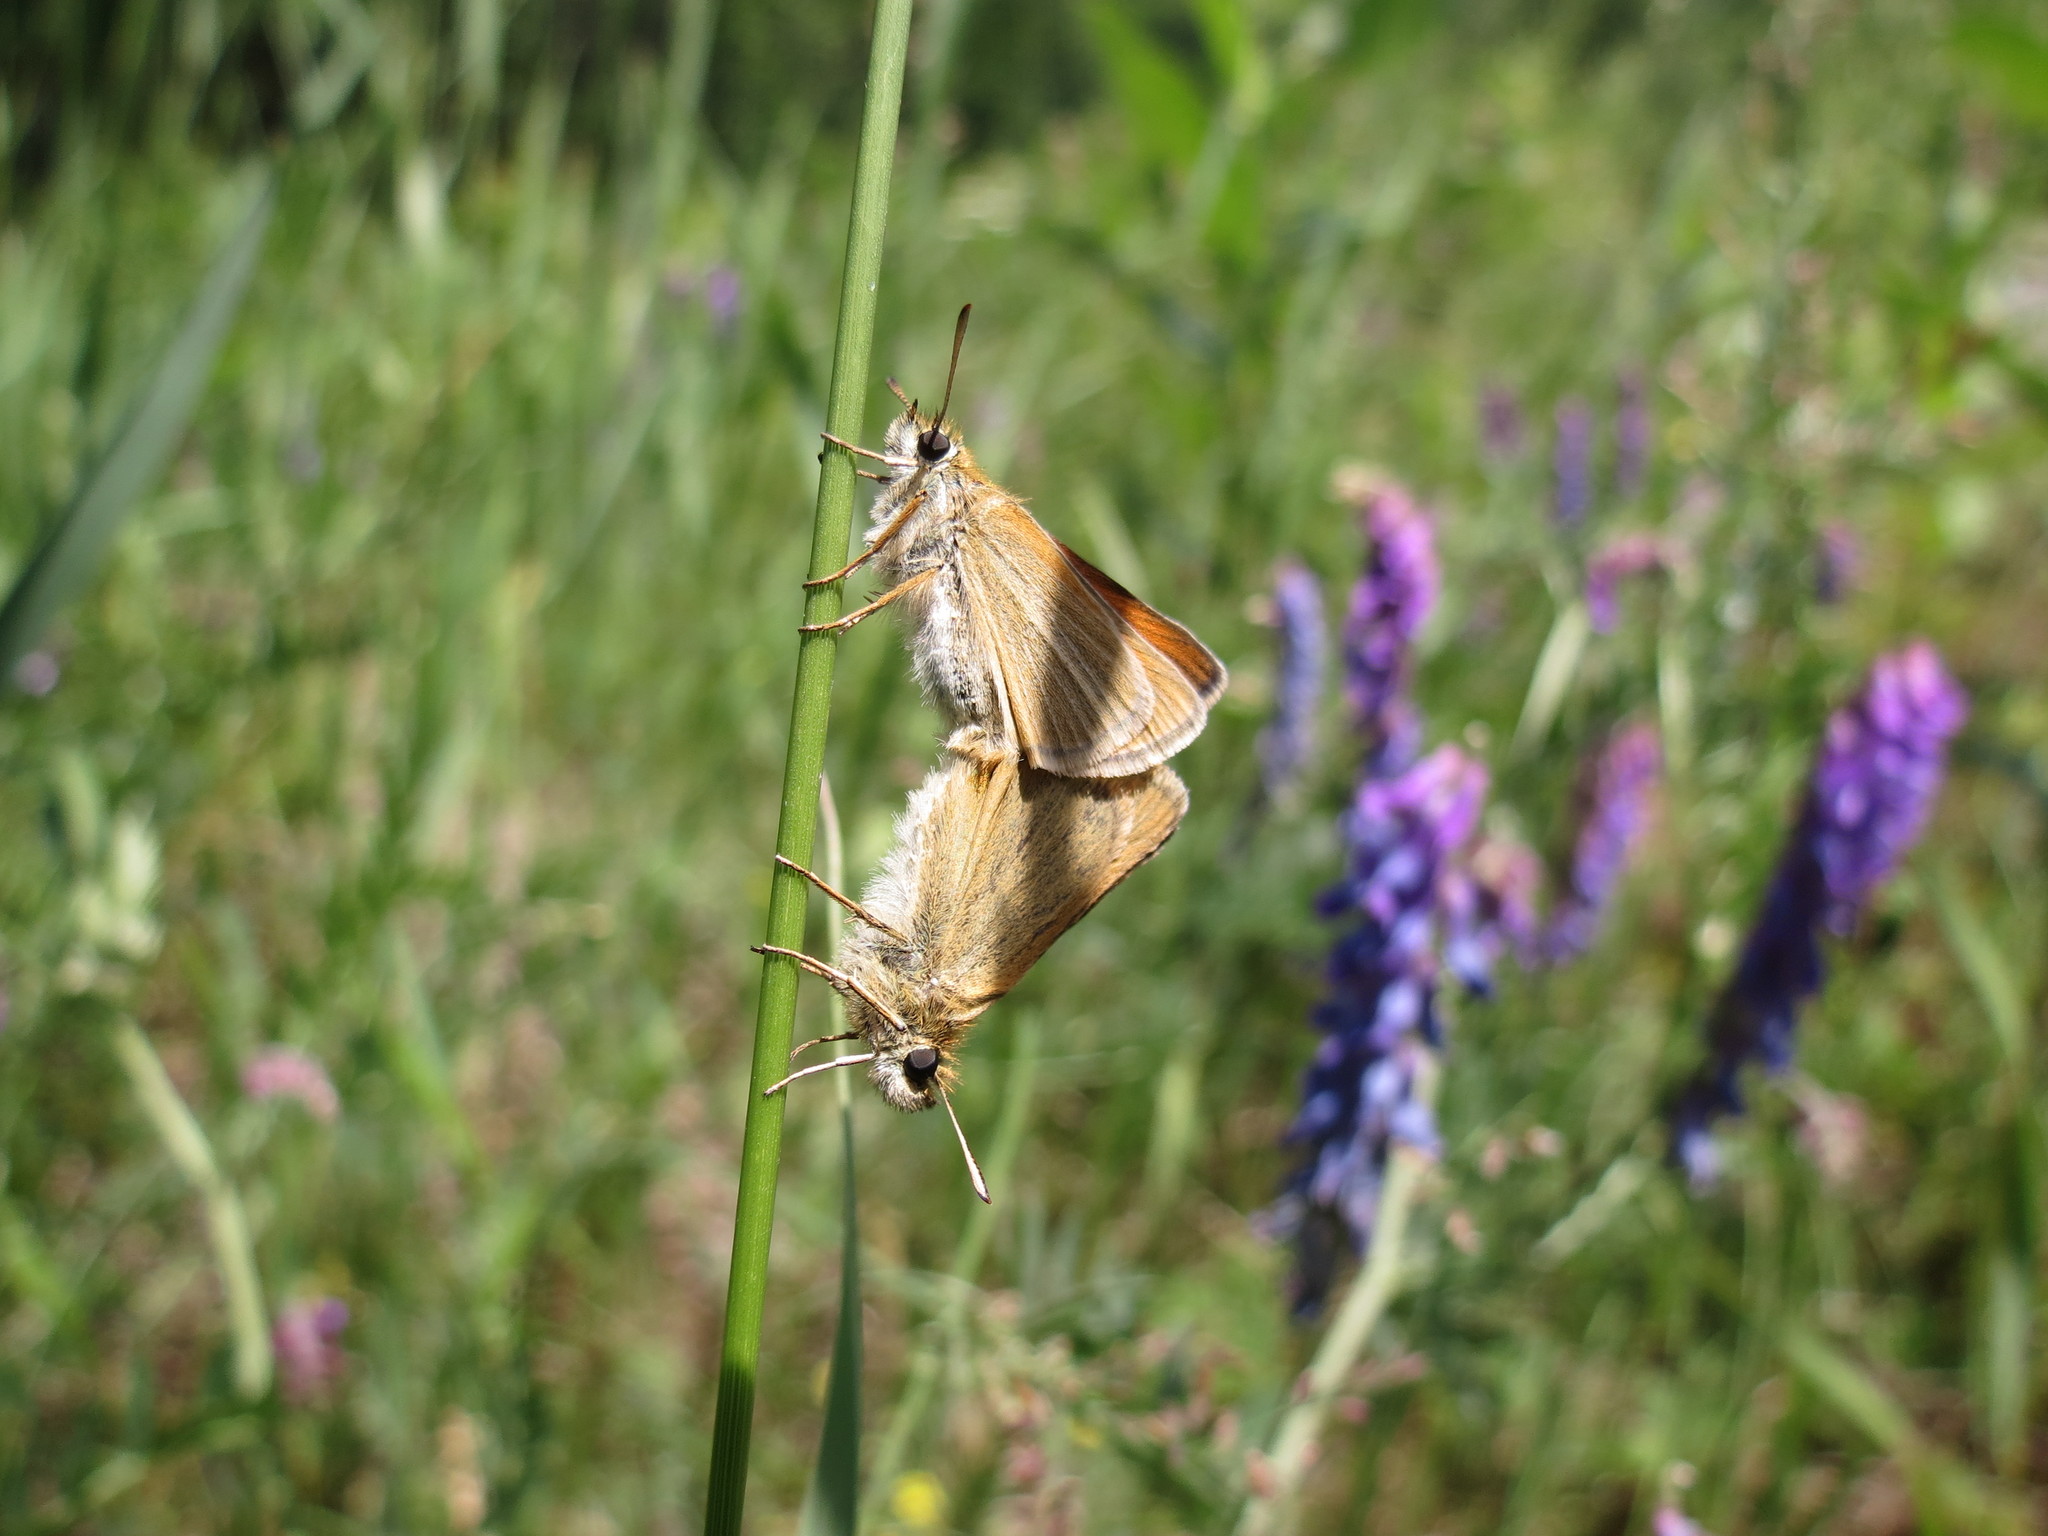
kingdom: Animalia
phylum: Arthropoda
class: Insecta
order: Lepidoptera
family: Hesperiidae
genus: Thymelicus
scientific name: Thymelicus lineola
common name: Essex skipper
